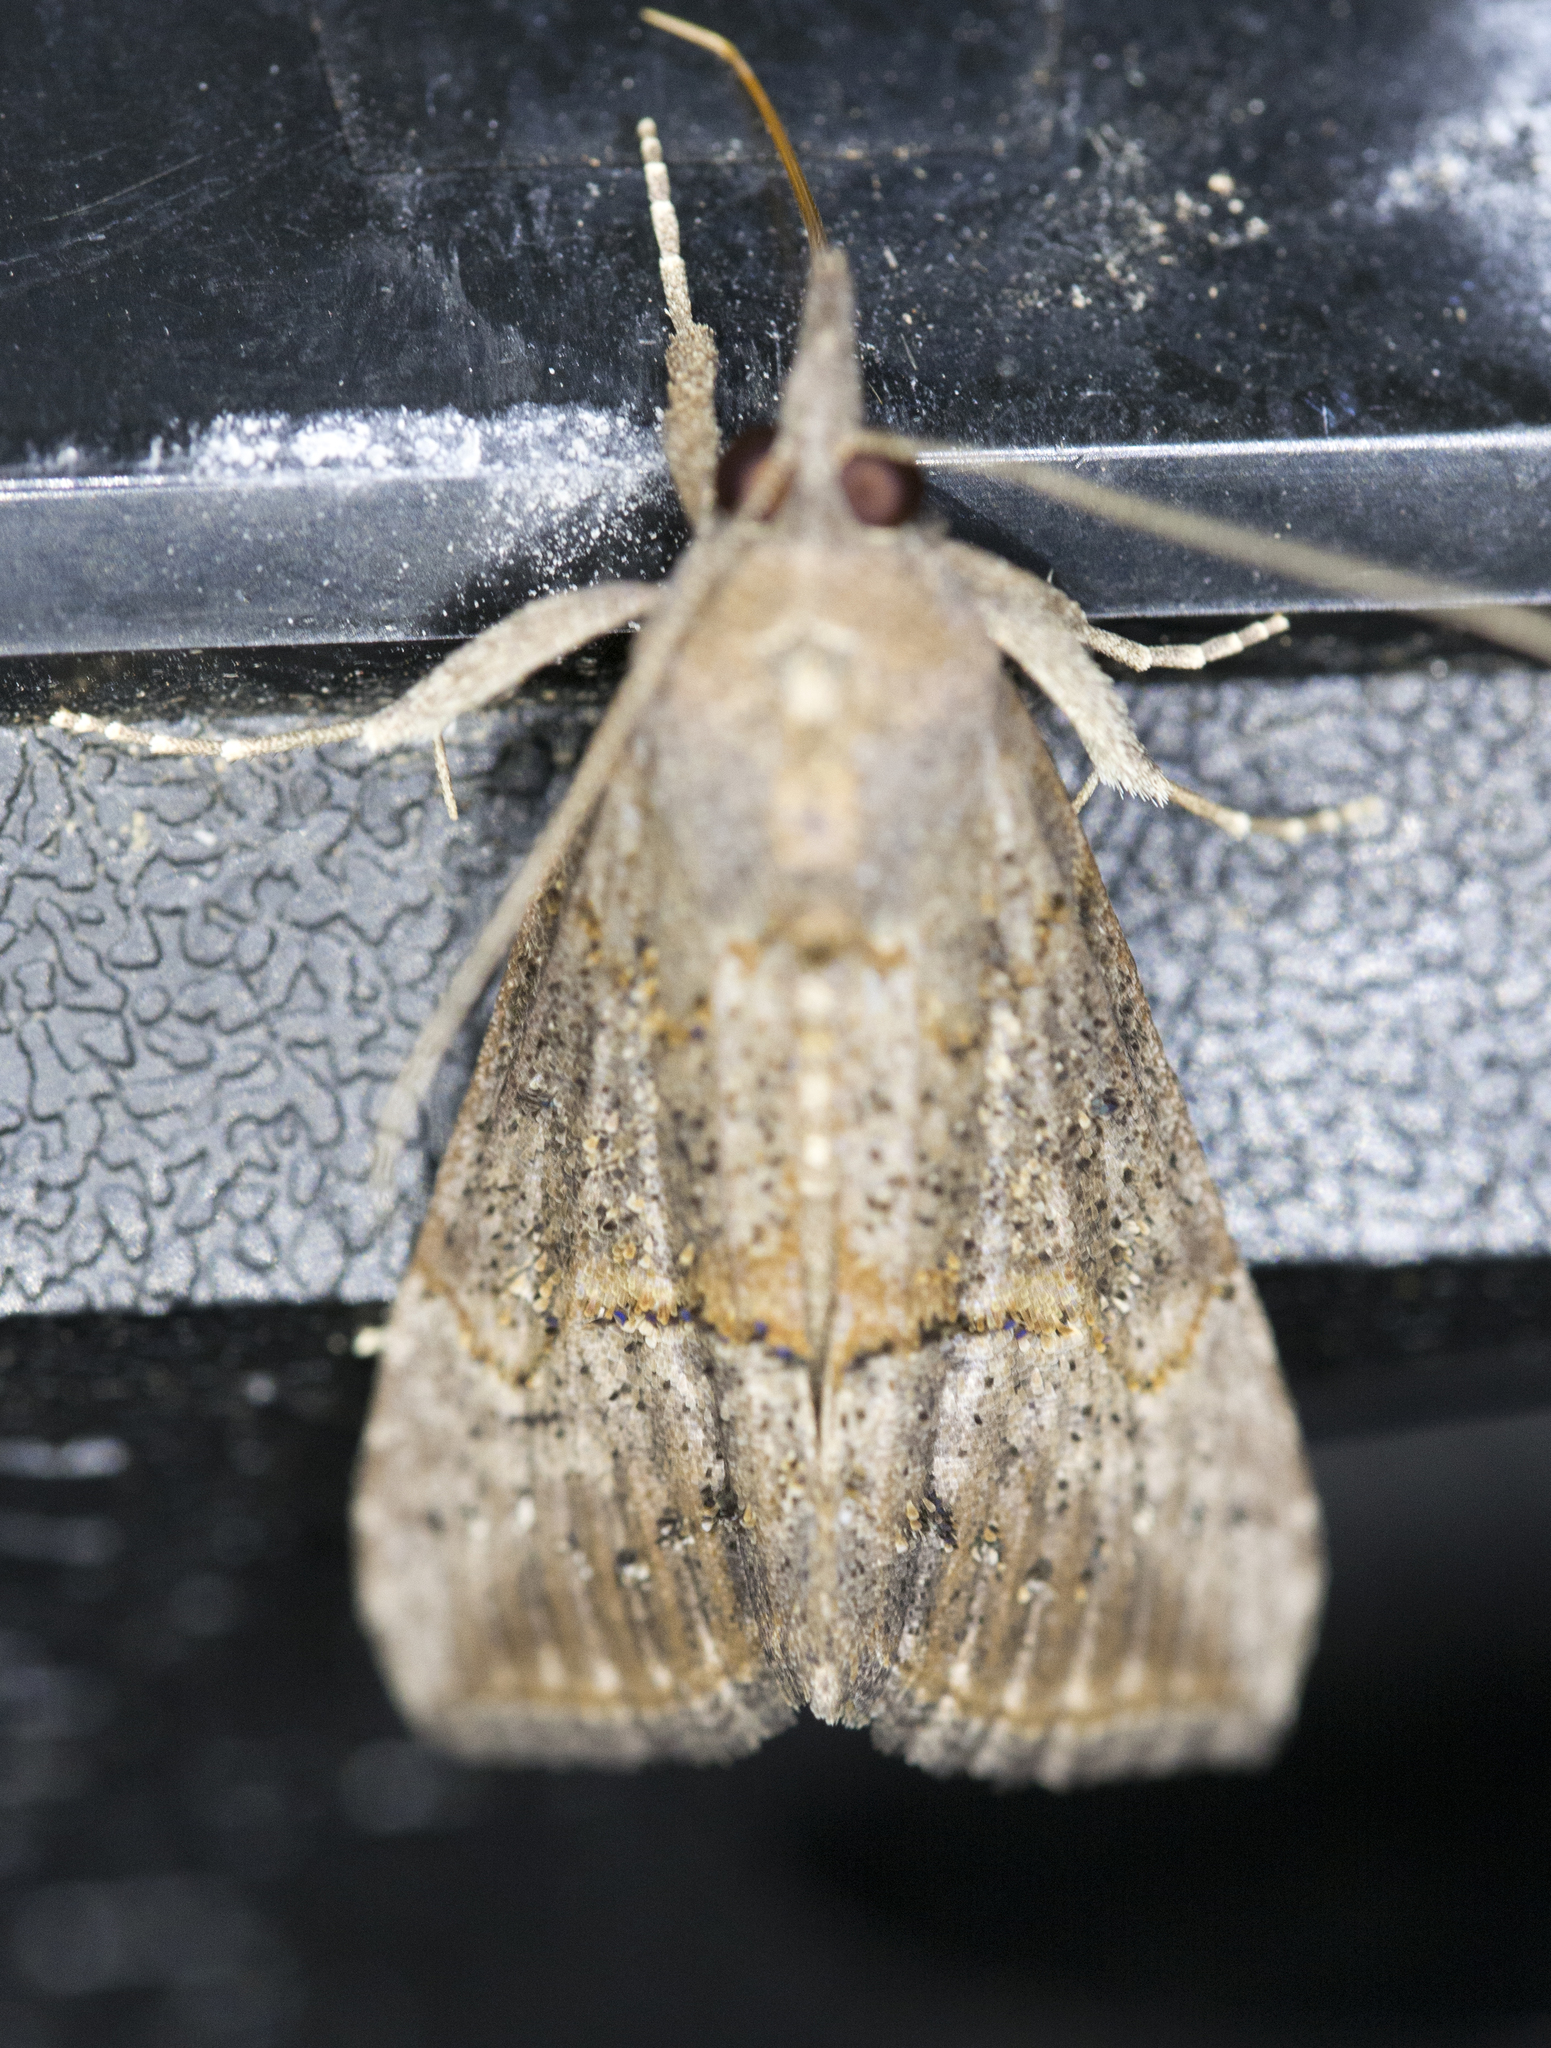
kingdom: Animalia
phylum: Arthropoda
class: Insecta
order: Lepidoptera
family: Erebidae
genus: Hypena
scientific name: Hypena scabra
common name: Green cloverworm
